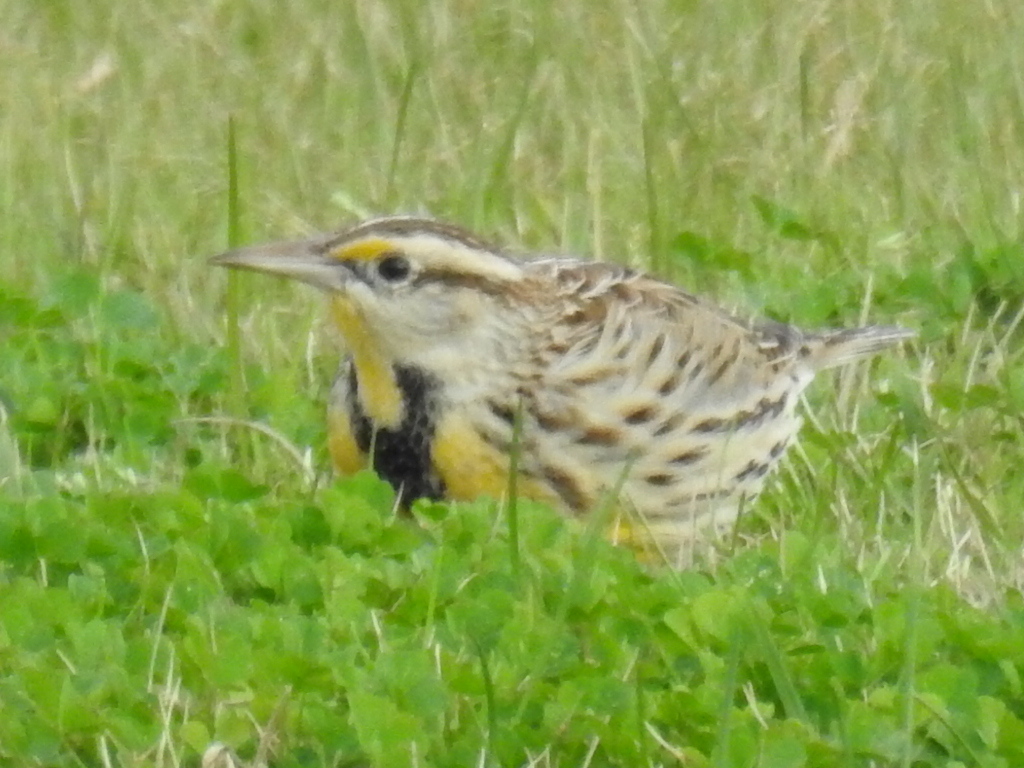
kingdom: Animalia
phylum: Chordata
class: Aves
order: Passeriformes
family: Icteridae
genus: Sturnella
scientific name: Sturnella magna
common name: Eastern meadowlark
